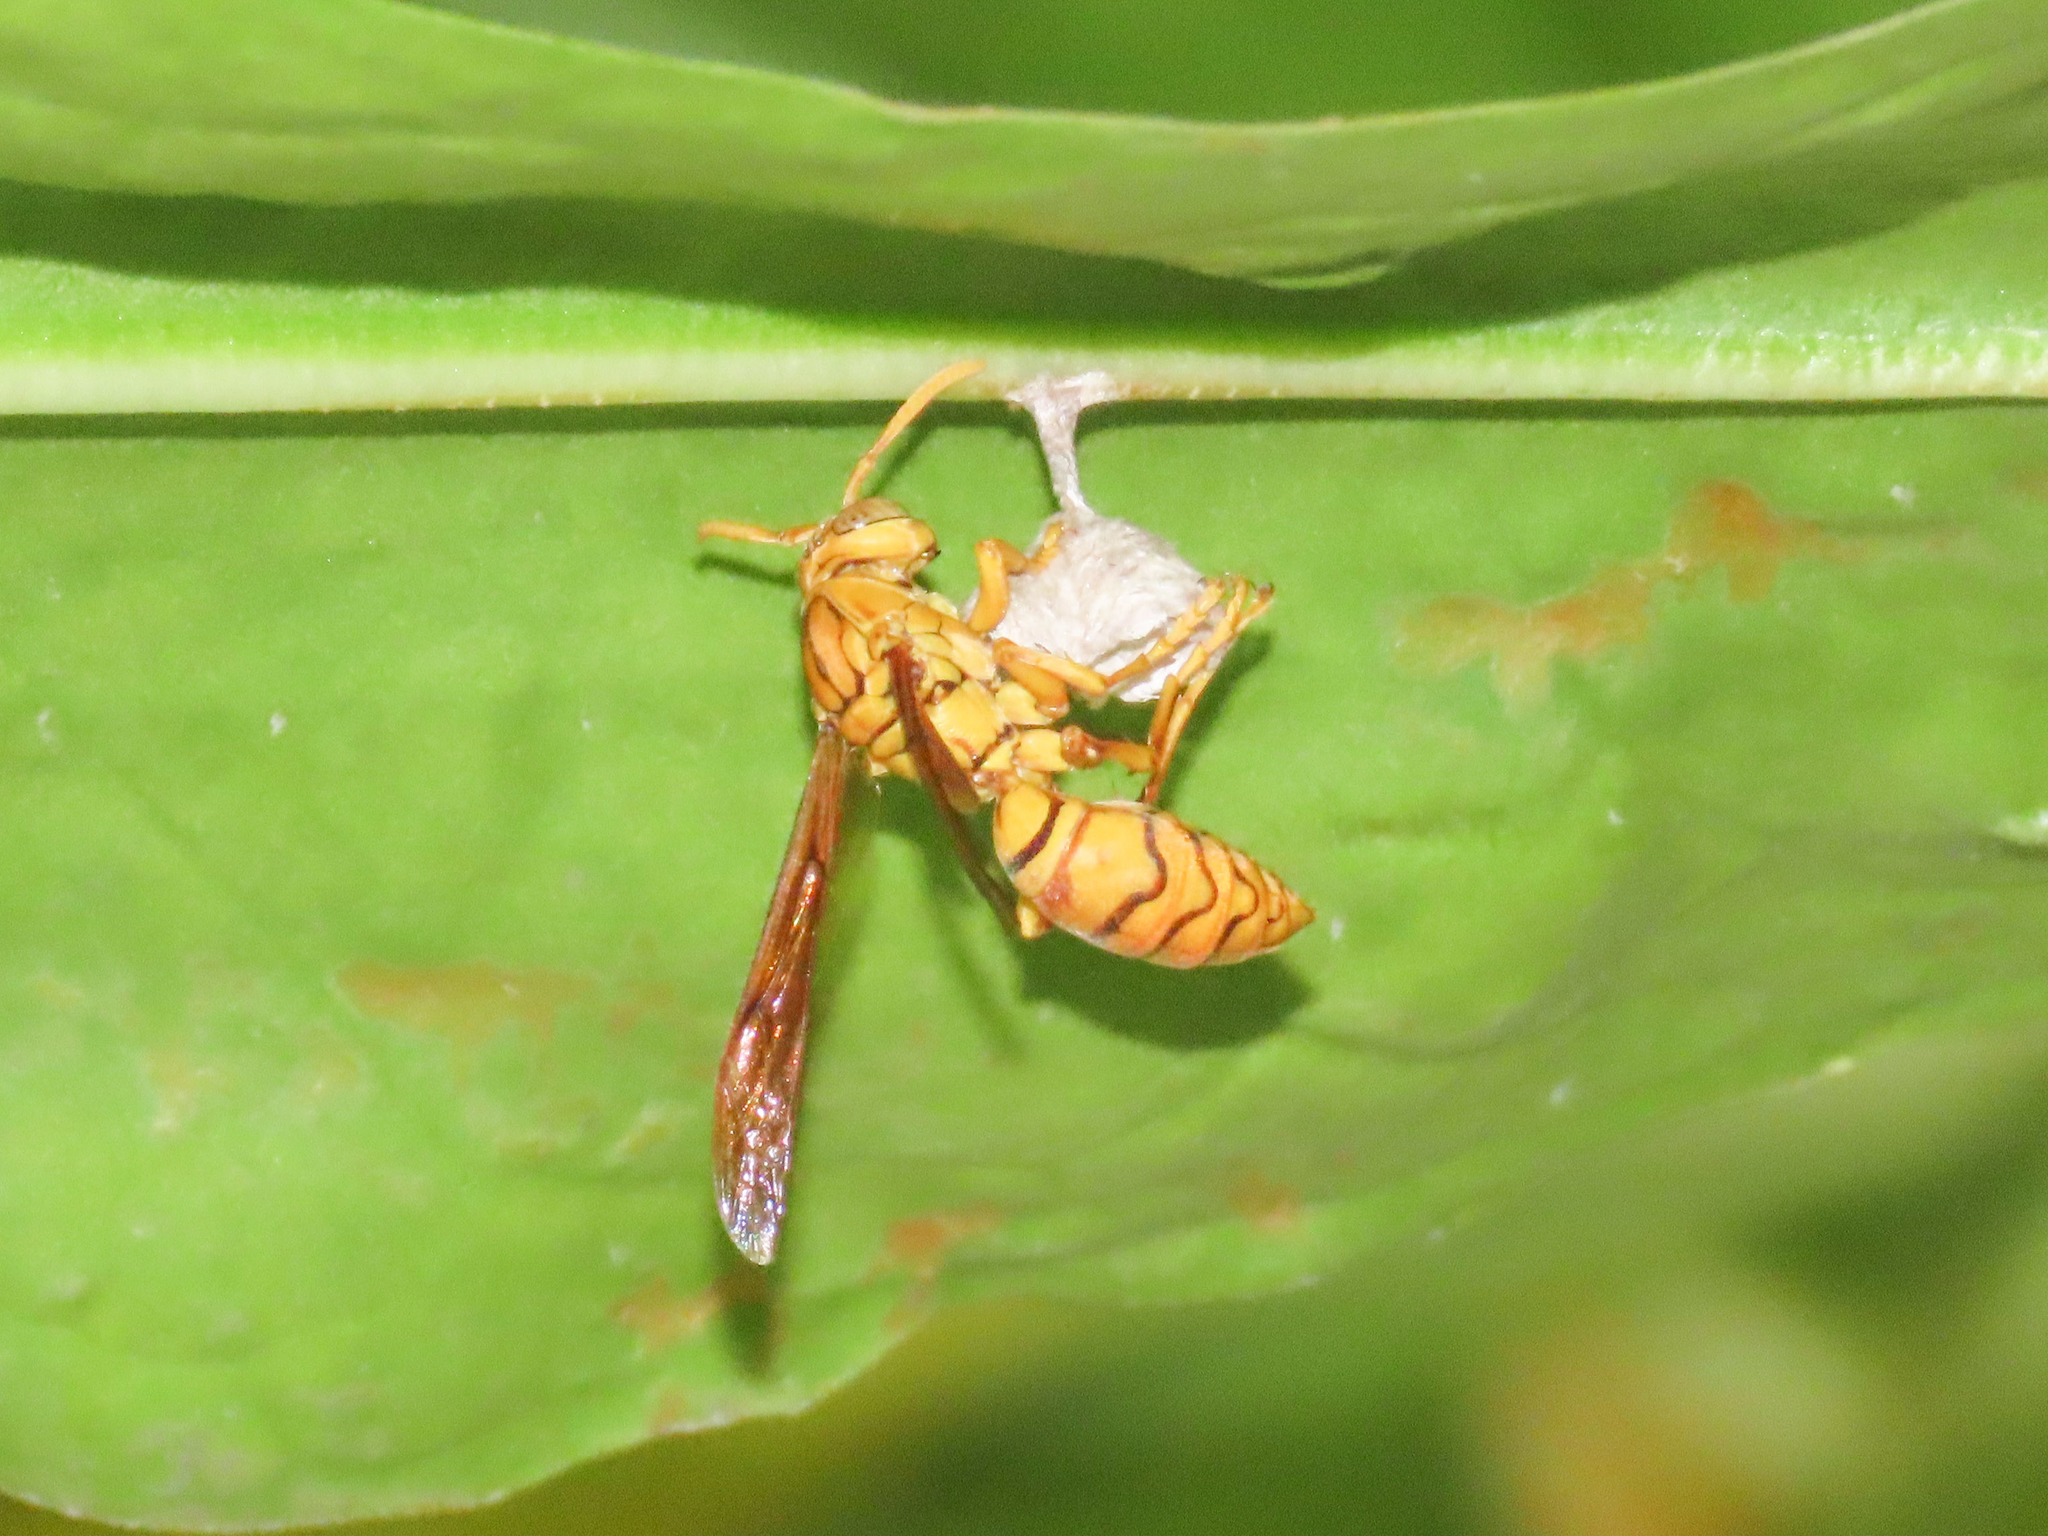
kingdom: Animalia
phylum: Arthropoda
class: Insecta
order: Hymenoptera
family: Eumenidae
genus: Polistes
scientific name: Polistes olivaceus
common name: Paper wasp
